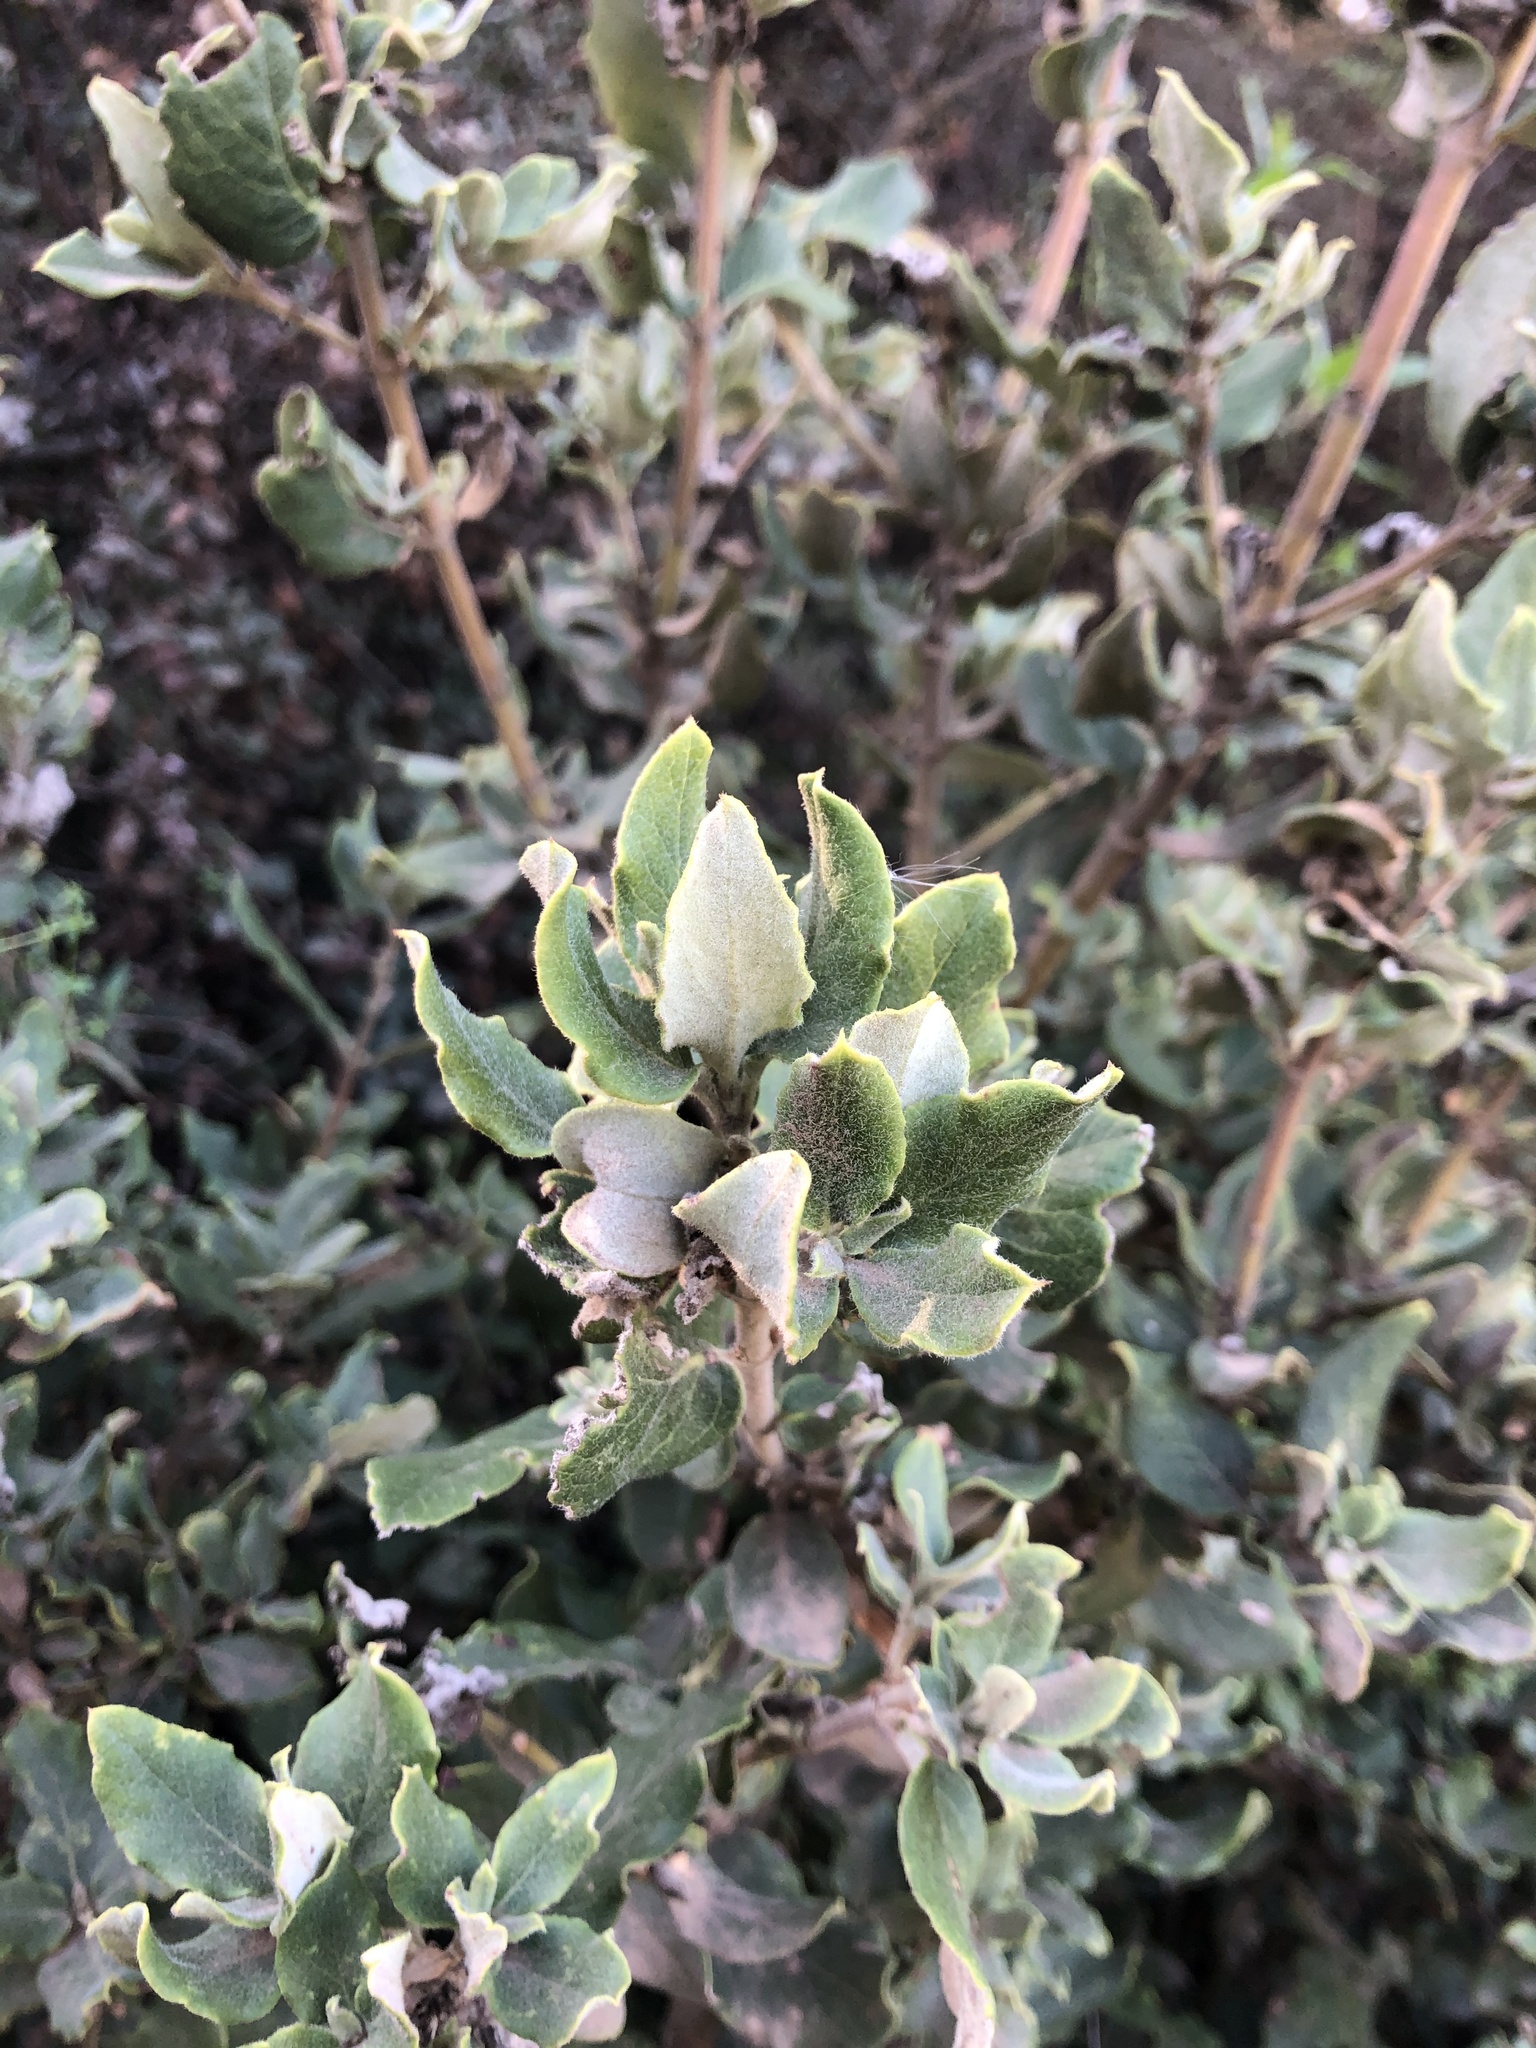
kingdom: Plantae
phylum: Tracheophyta
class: Magnoliopsida
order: Garryales
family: Garryaceae
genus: Garrya
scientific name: Garrya elliptica
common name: Silk-tassel
